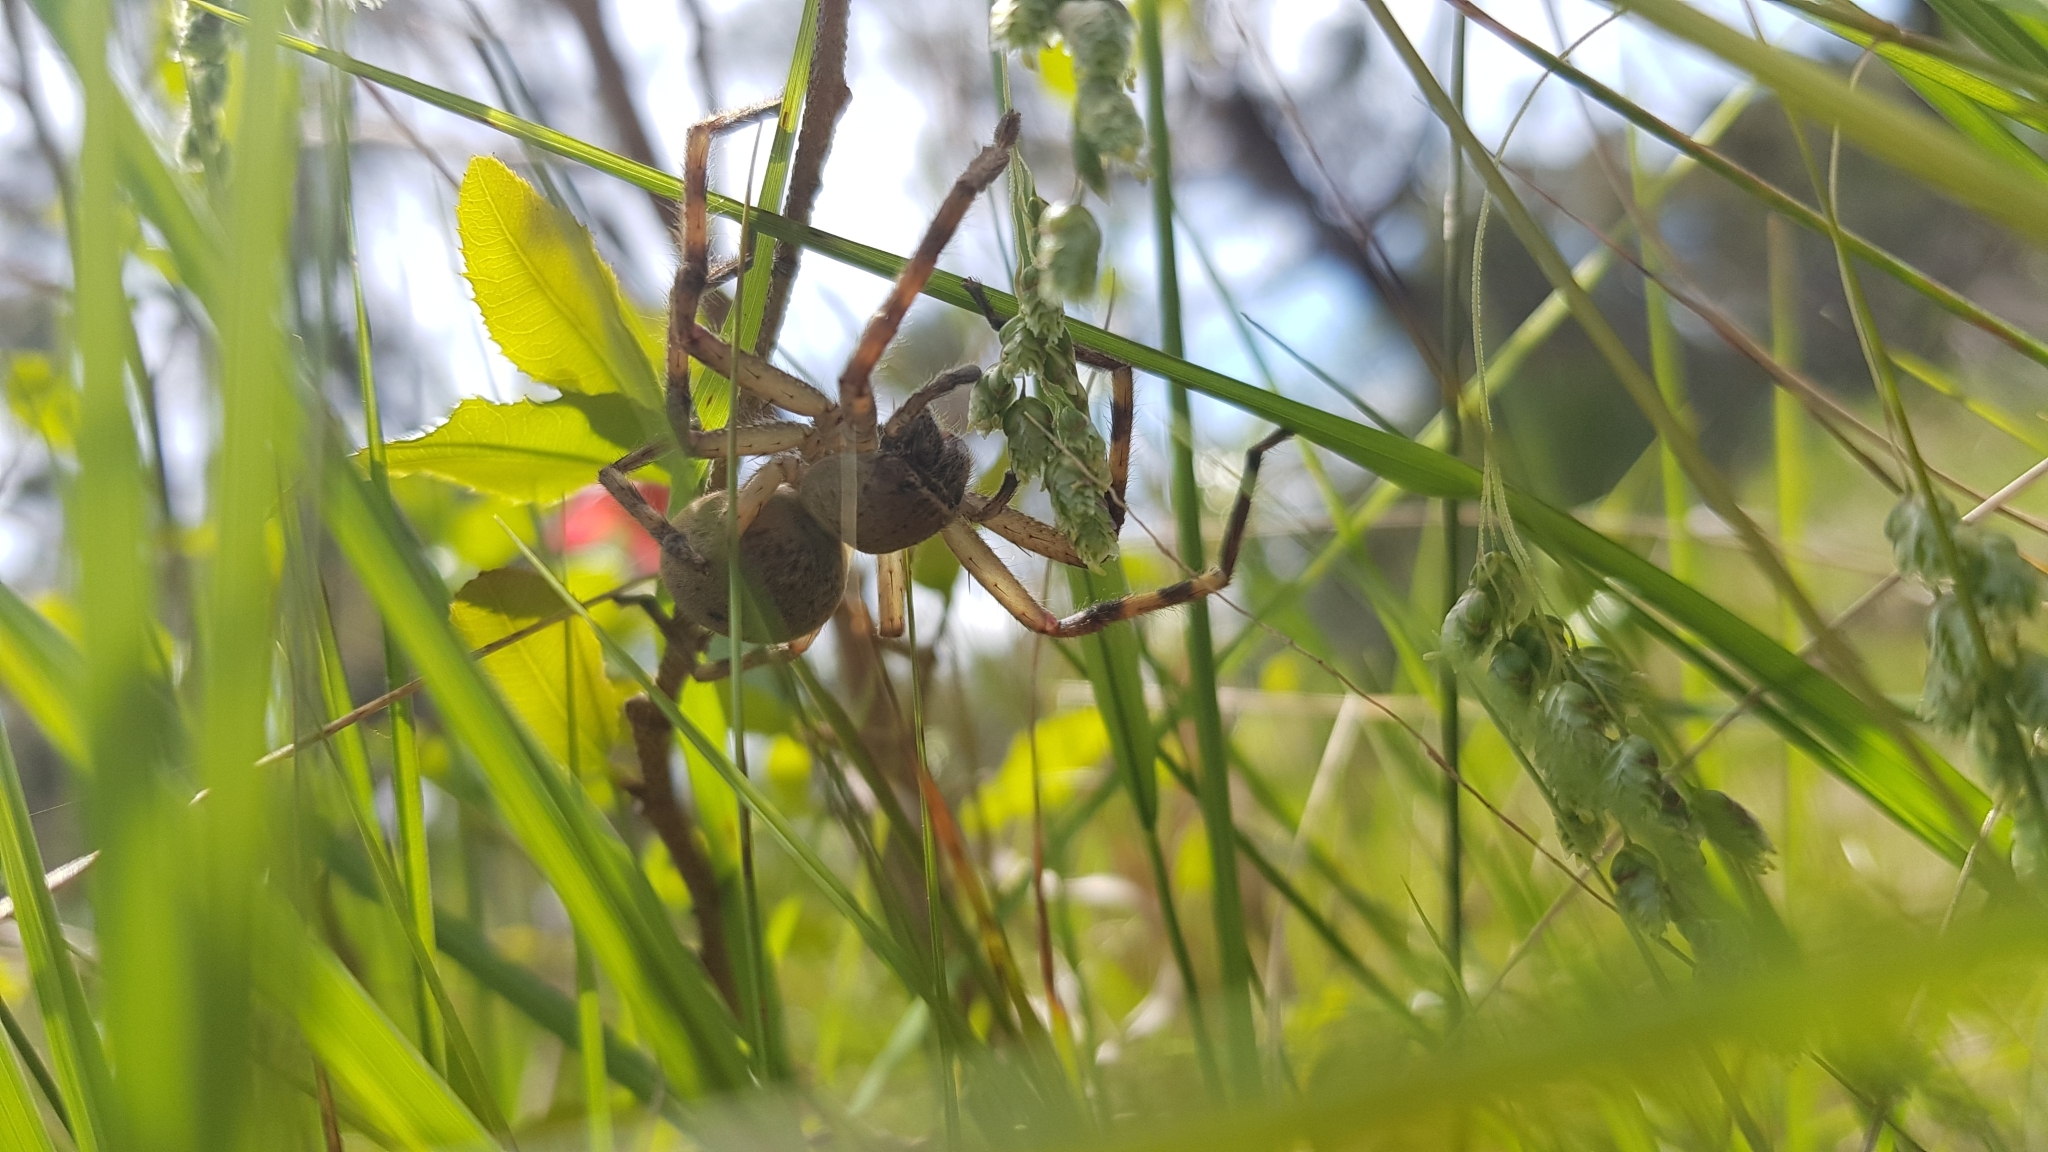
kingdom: Animalia
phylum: Arthropoda
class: Arachnida
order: Araneae
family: Sparassidae
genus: Neosparassus
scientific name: Neosparassus calligaster
